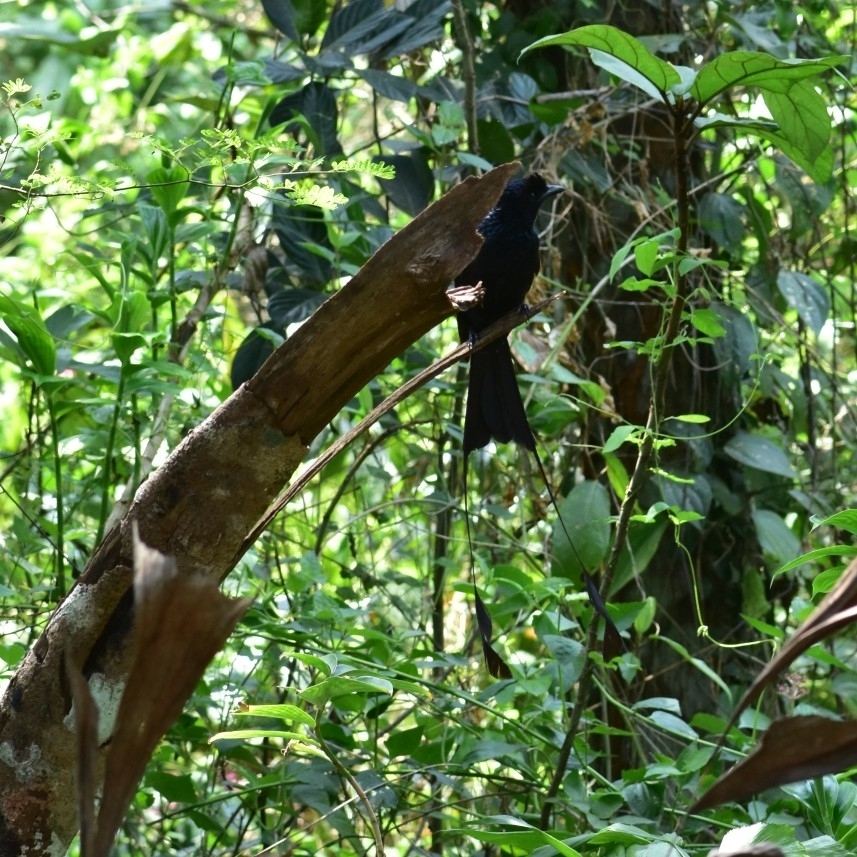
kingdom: Animalia
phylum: Chordata
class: Aves
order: Passeriformes
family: Dicruridae
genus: Dicrurus
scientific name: Dicrurus paradiseus
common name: Greater racket-tailed drongo
